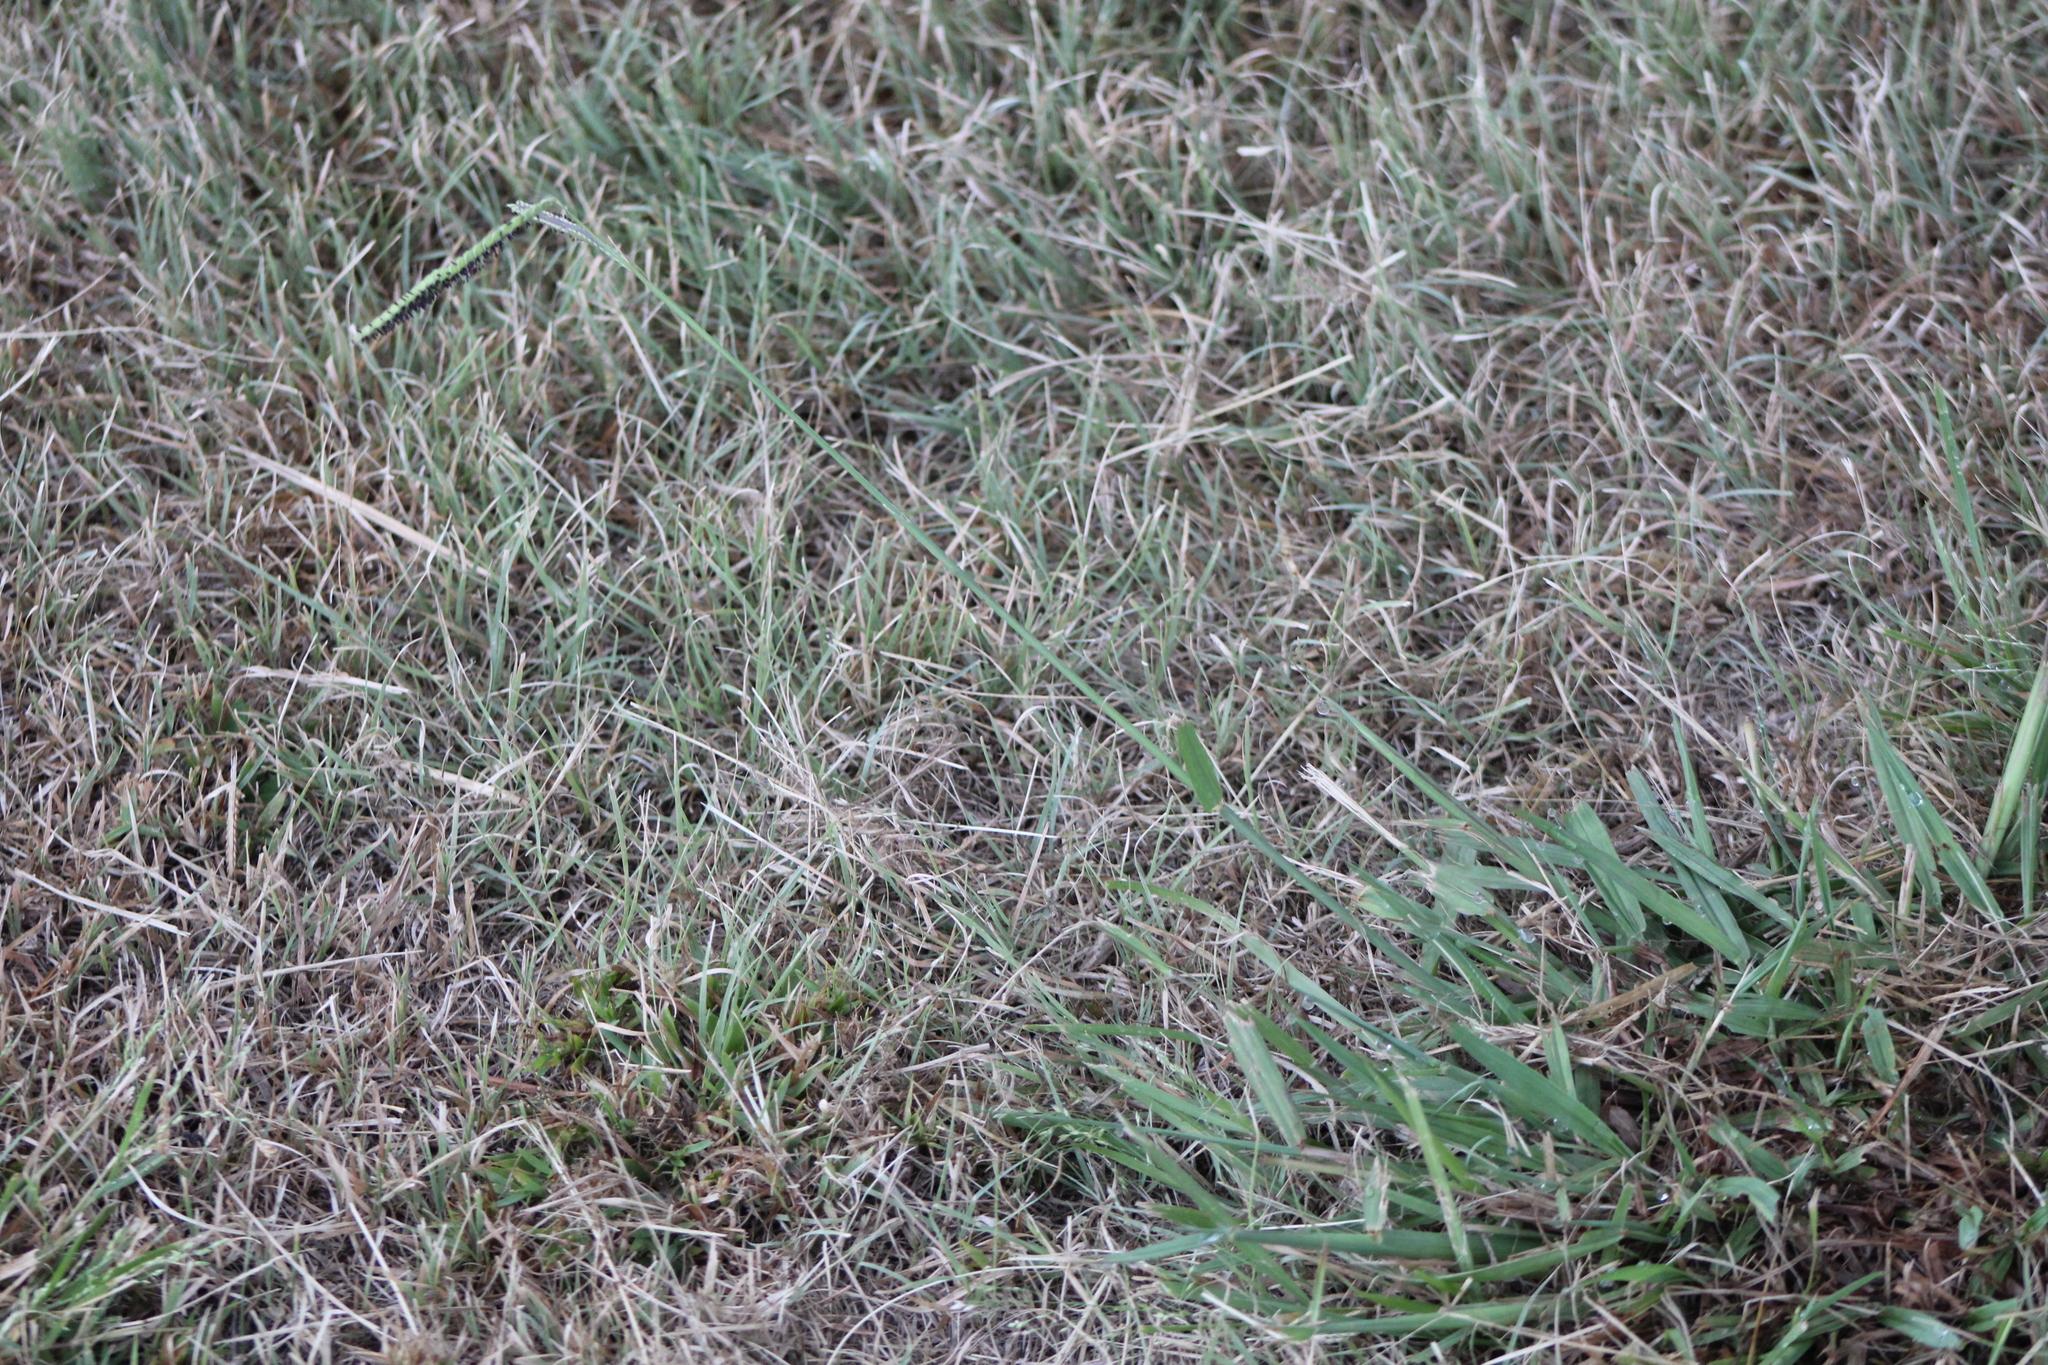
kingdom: Plantae
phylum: Tracheophyta
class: Liliopsida
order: Poales
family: Poaceae
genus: Paspalum
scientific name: Paspalum dilatatum
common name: Dallisgrass
